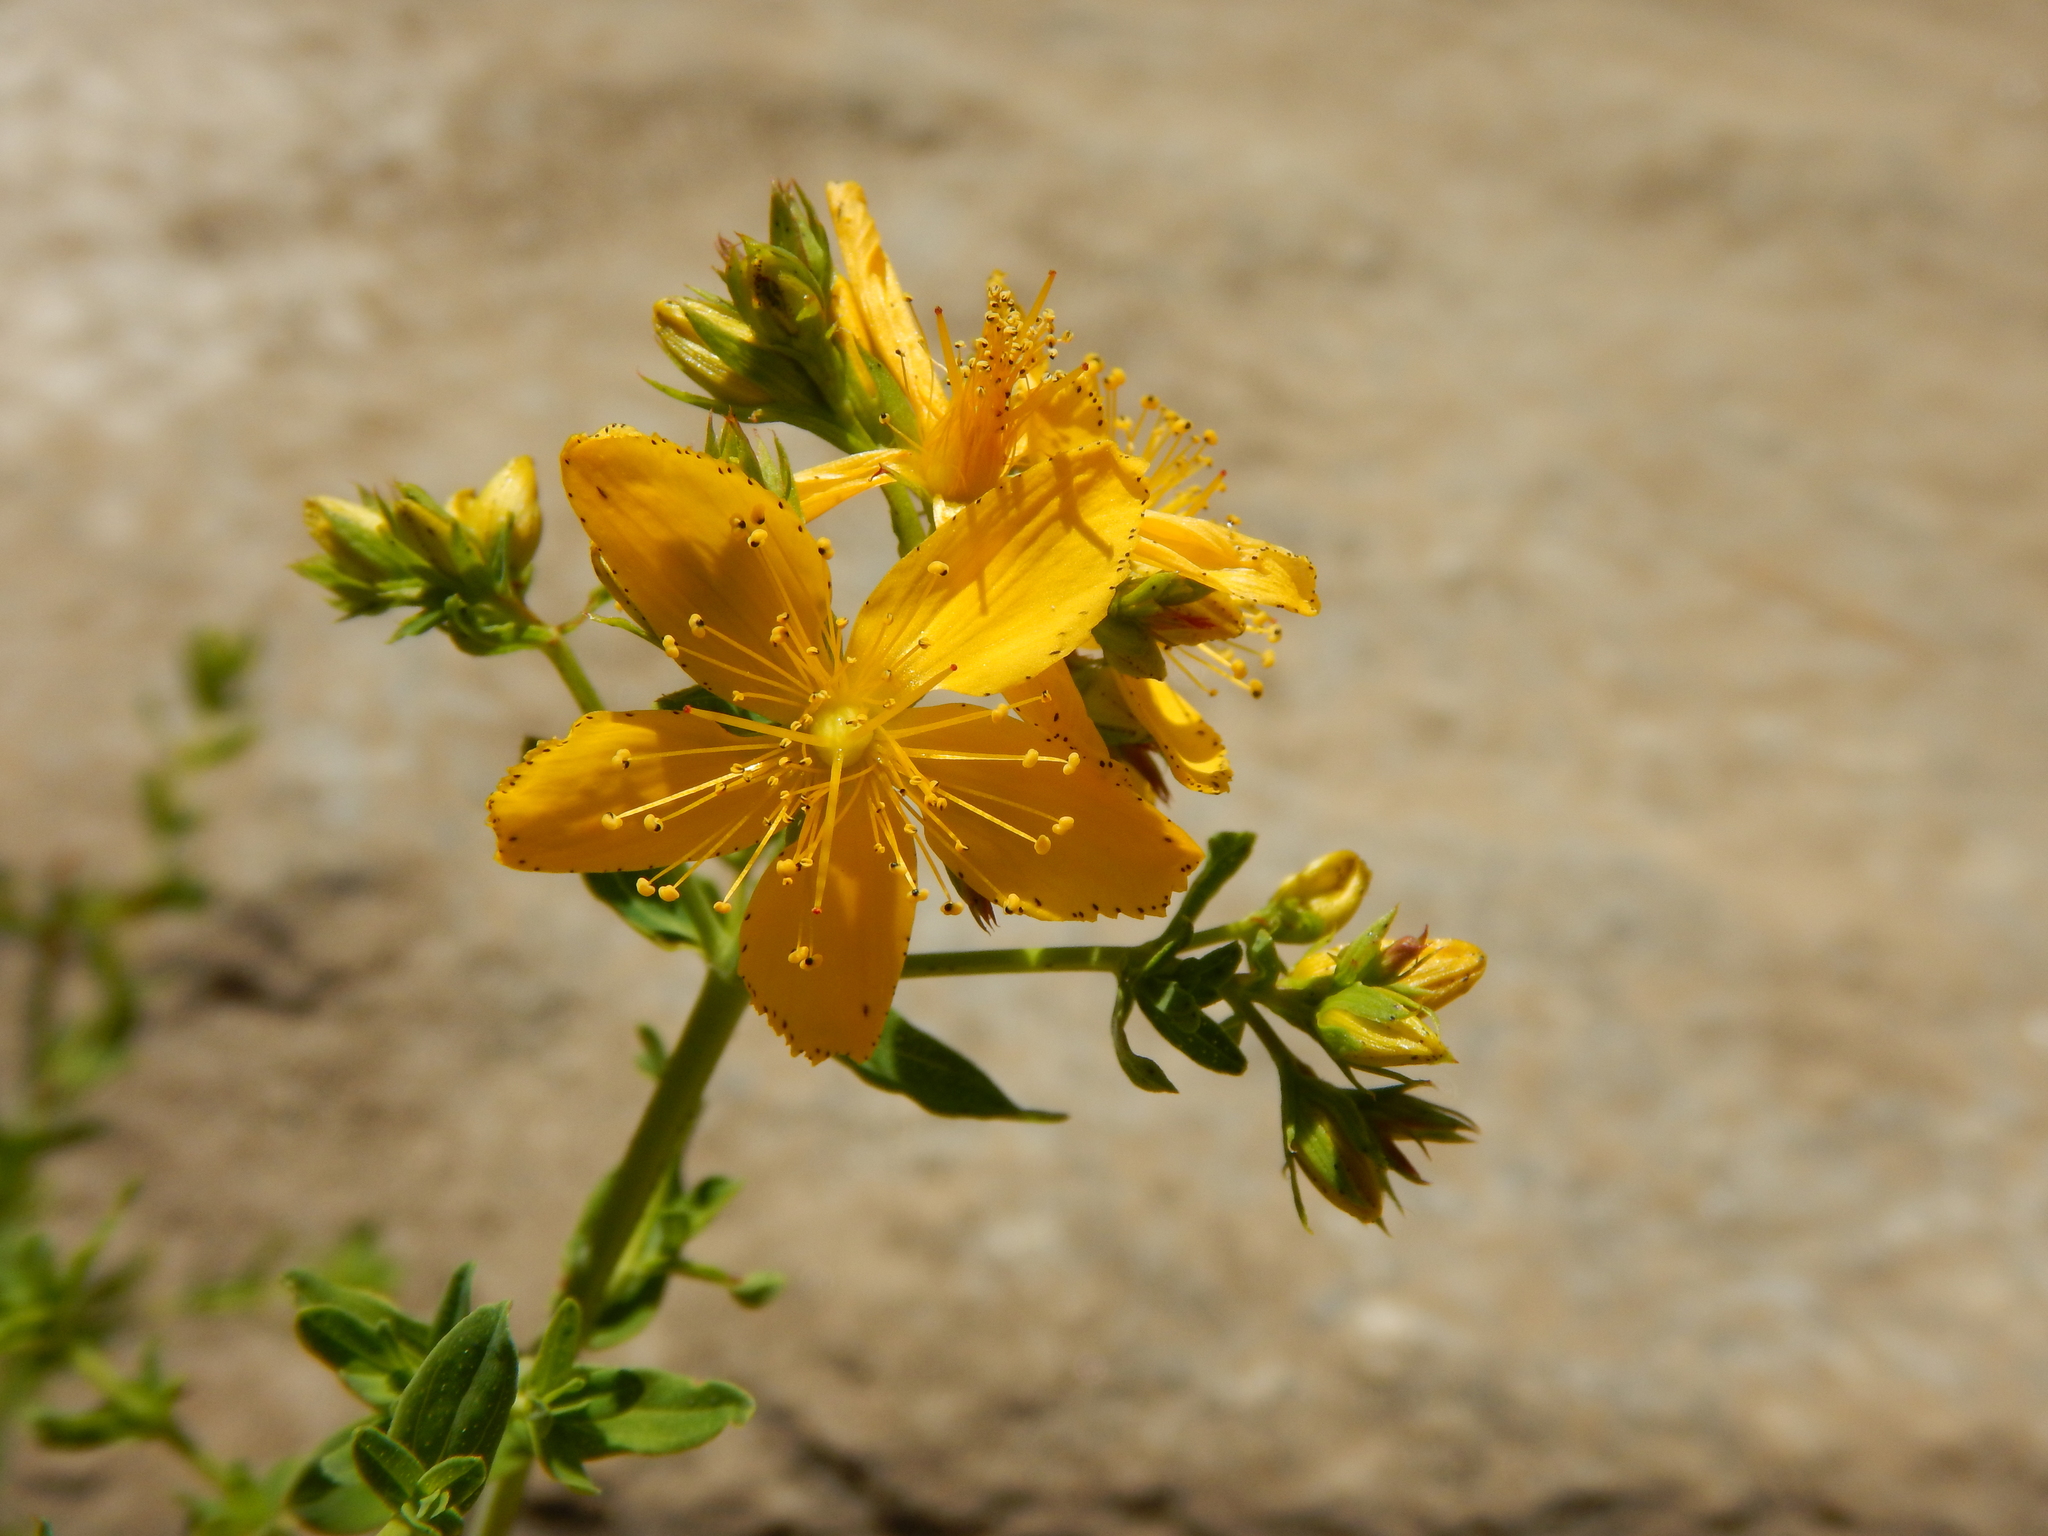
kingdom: Plantae
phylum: Tracheophyta
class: Magnoliopsida
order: Malpighiales
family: Hypericaceae
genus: Hypericum
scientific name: Hypericum perforatum
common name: Common st. johnswort
